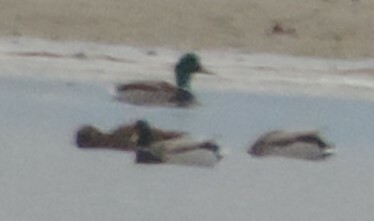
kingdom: Animalia
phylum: Chordata
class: Aves
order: Anseriformes
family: Anatidae
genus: Anas
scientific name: Anas platyrhynchos
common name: Mallard
